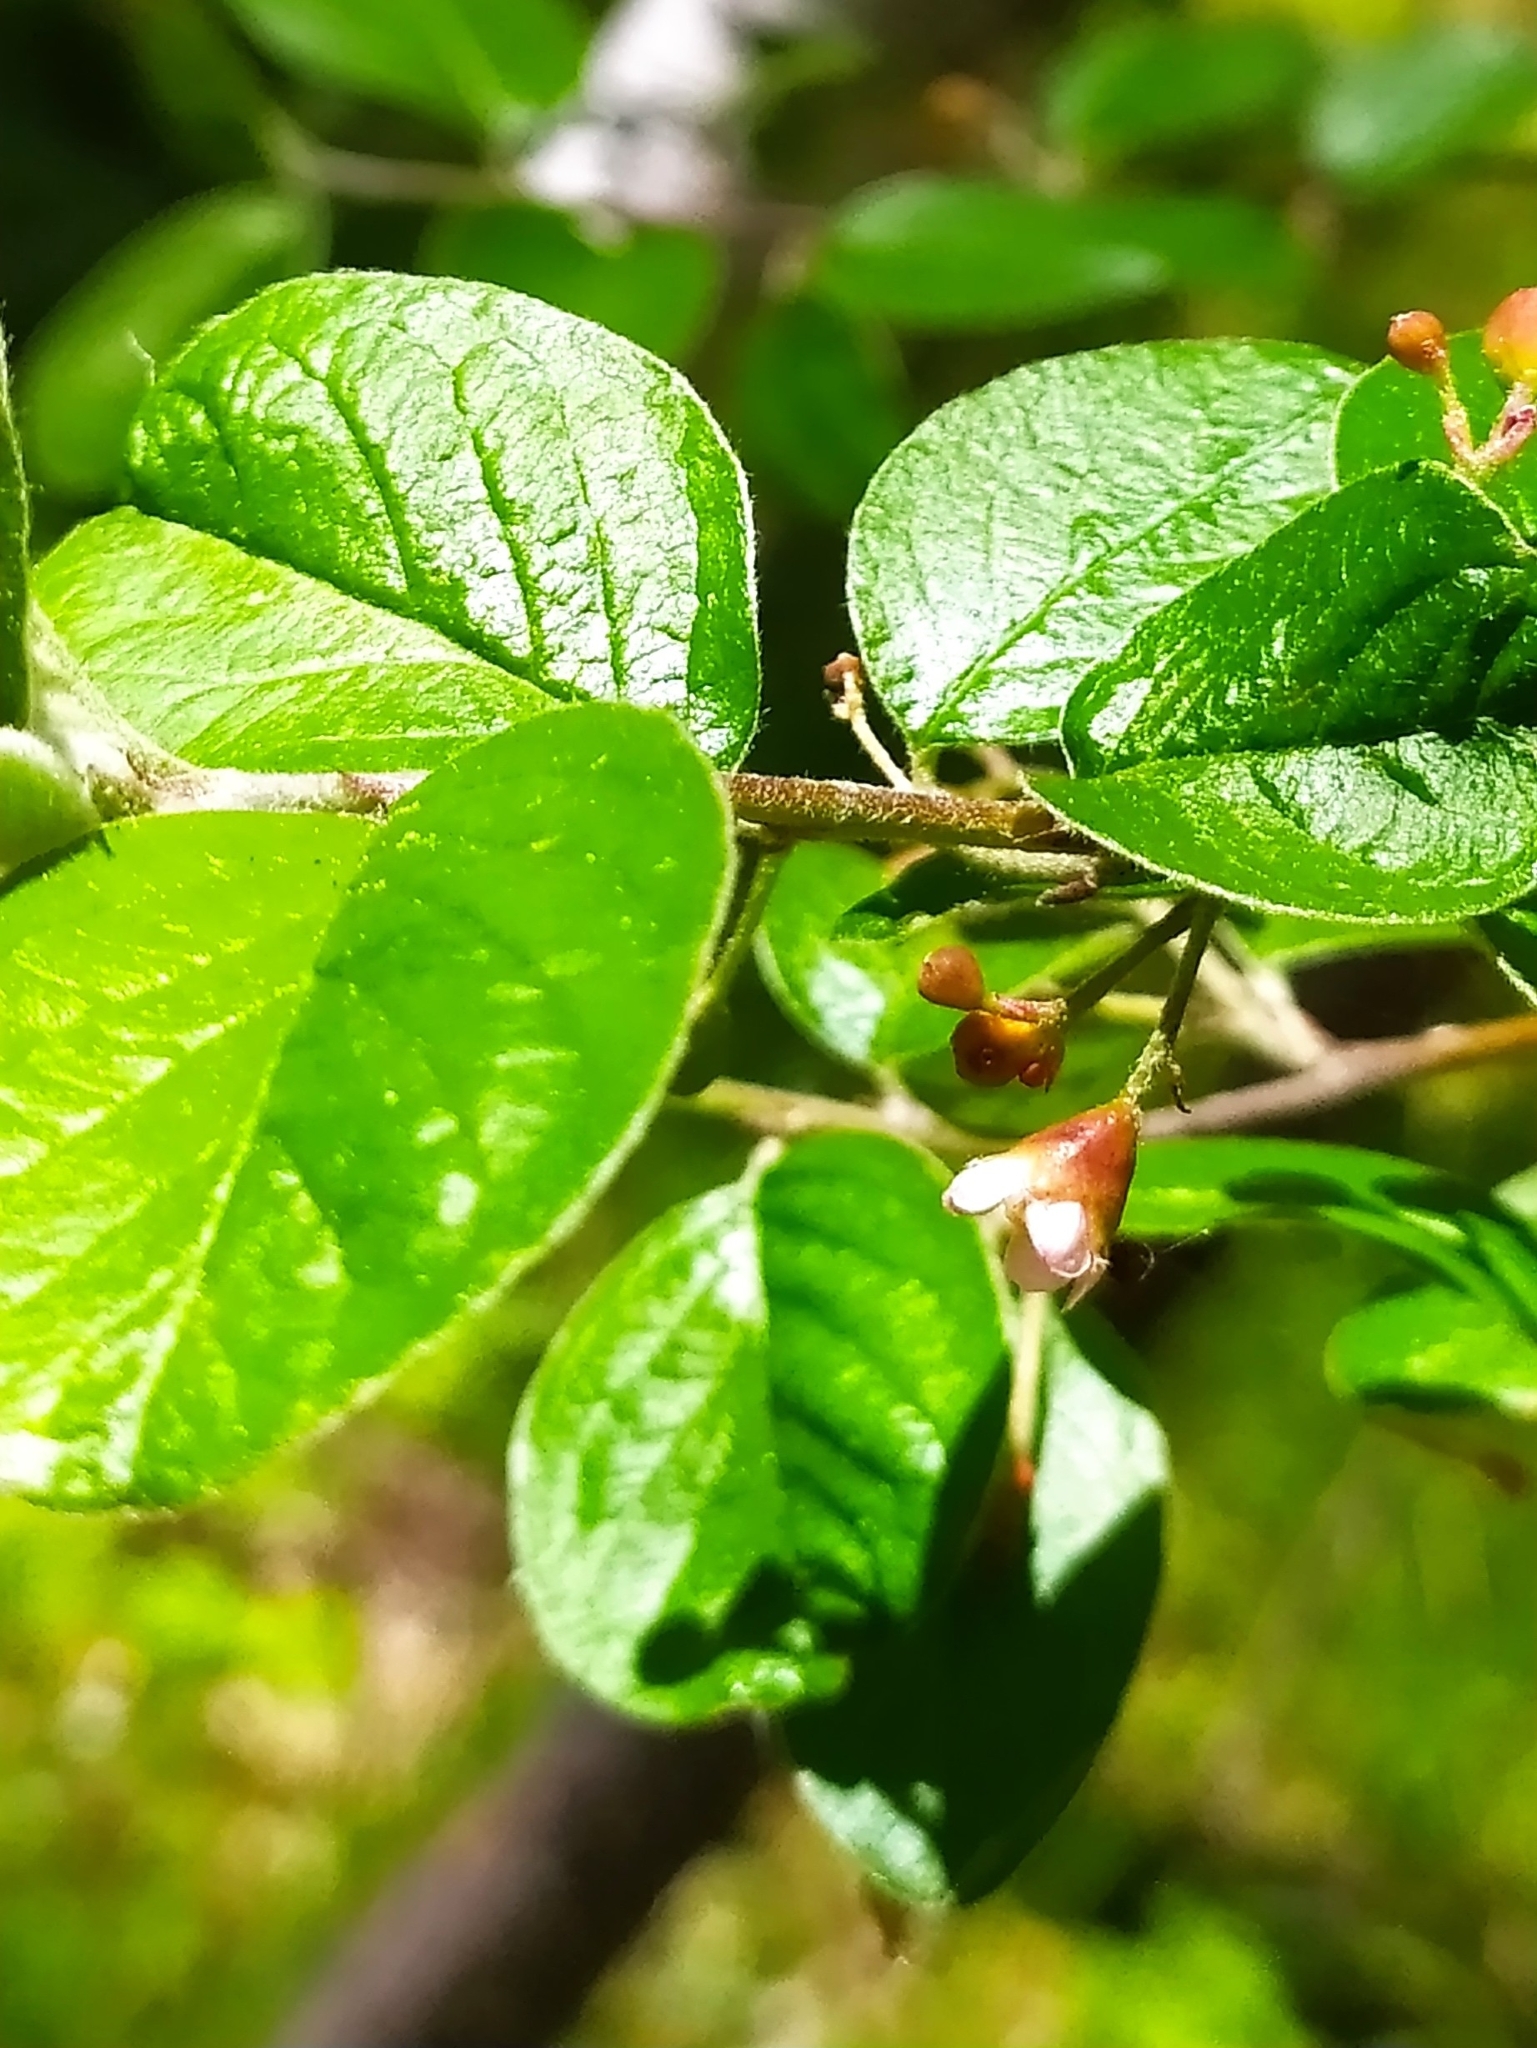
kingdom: Plantae
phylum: Tracheophyta
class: Magnoliopsida
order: Rosales
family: Rosaceae
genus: Cotoneaster
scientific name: Cotoneaster melanocarpus
